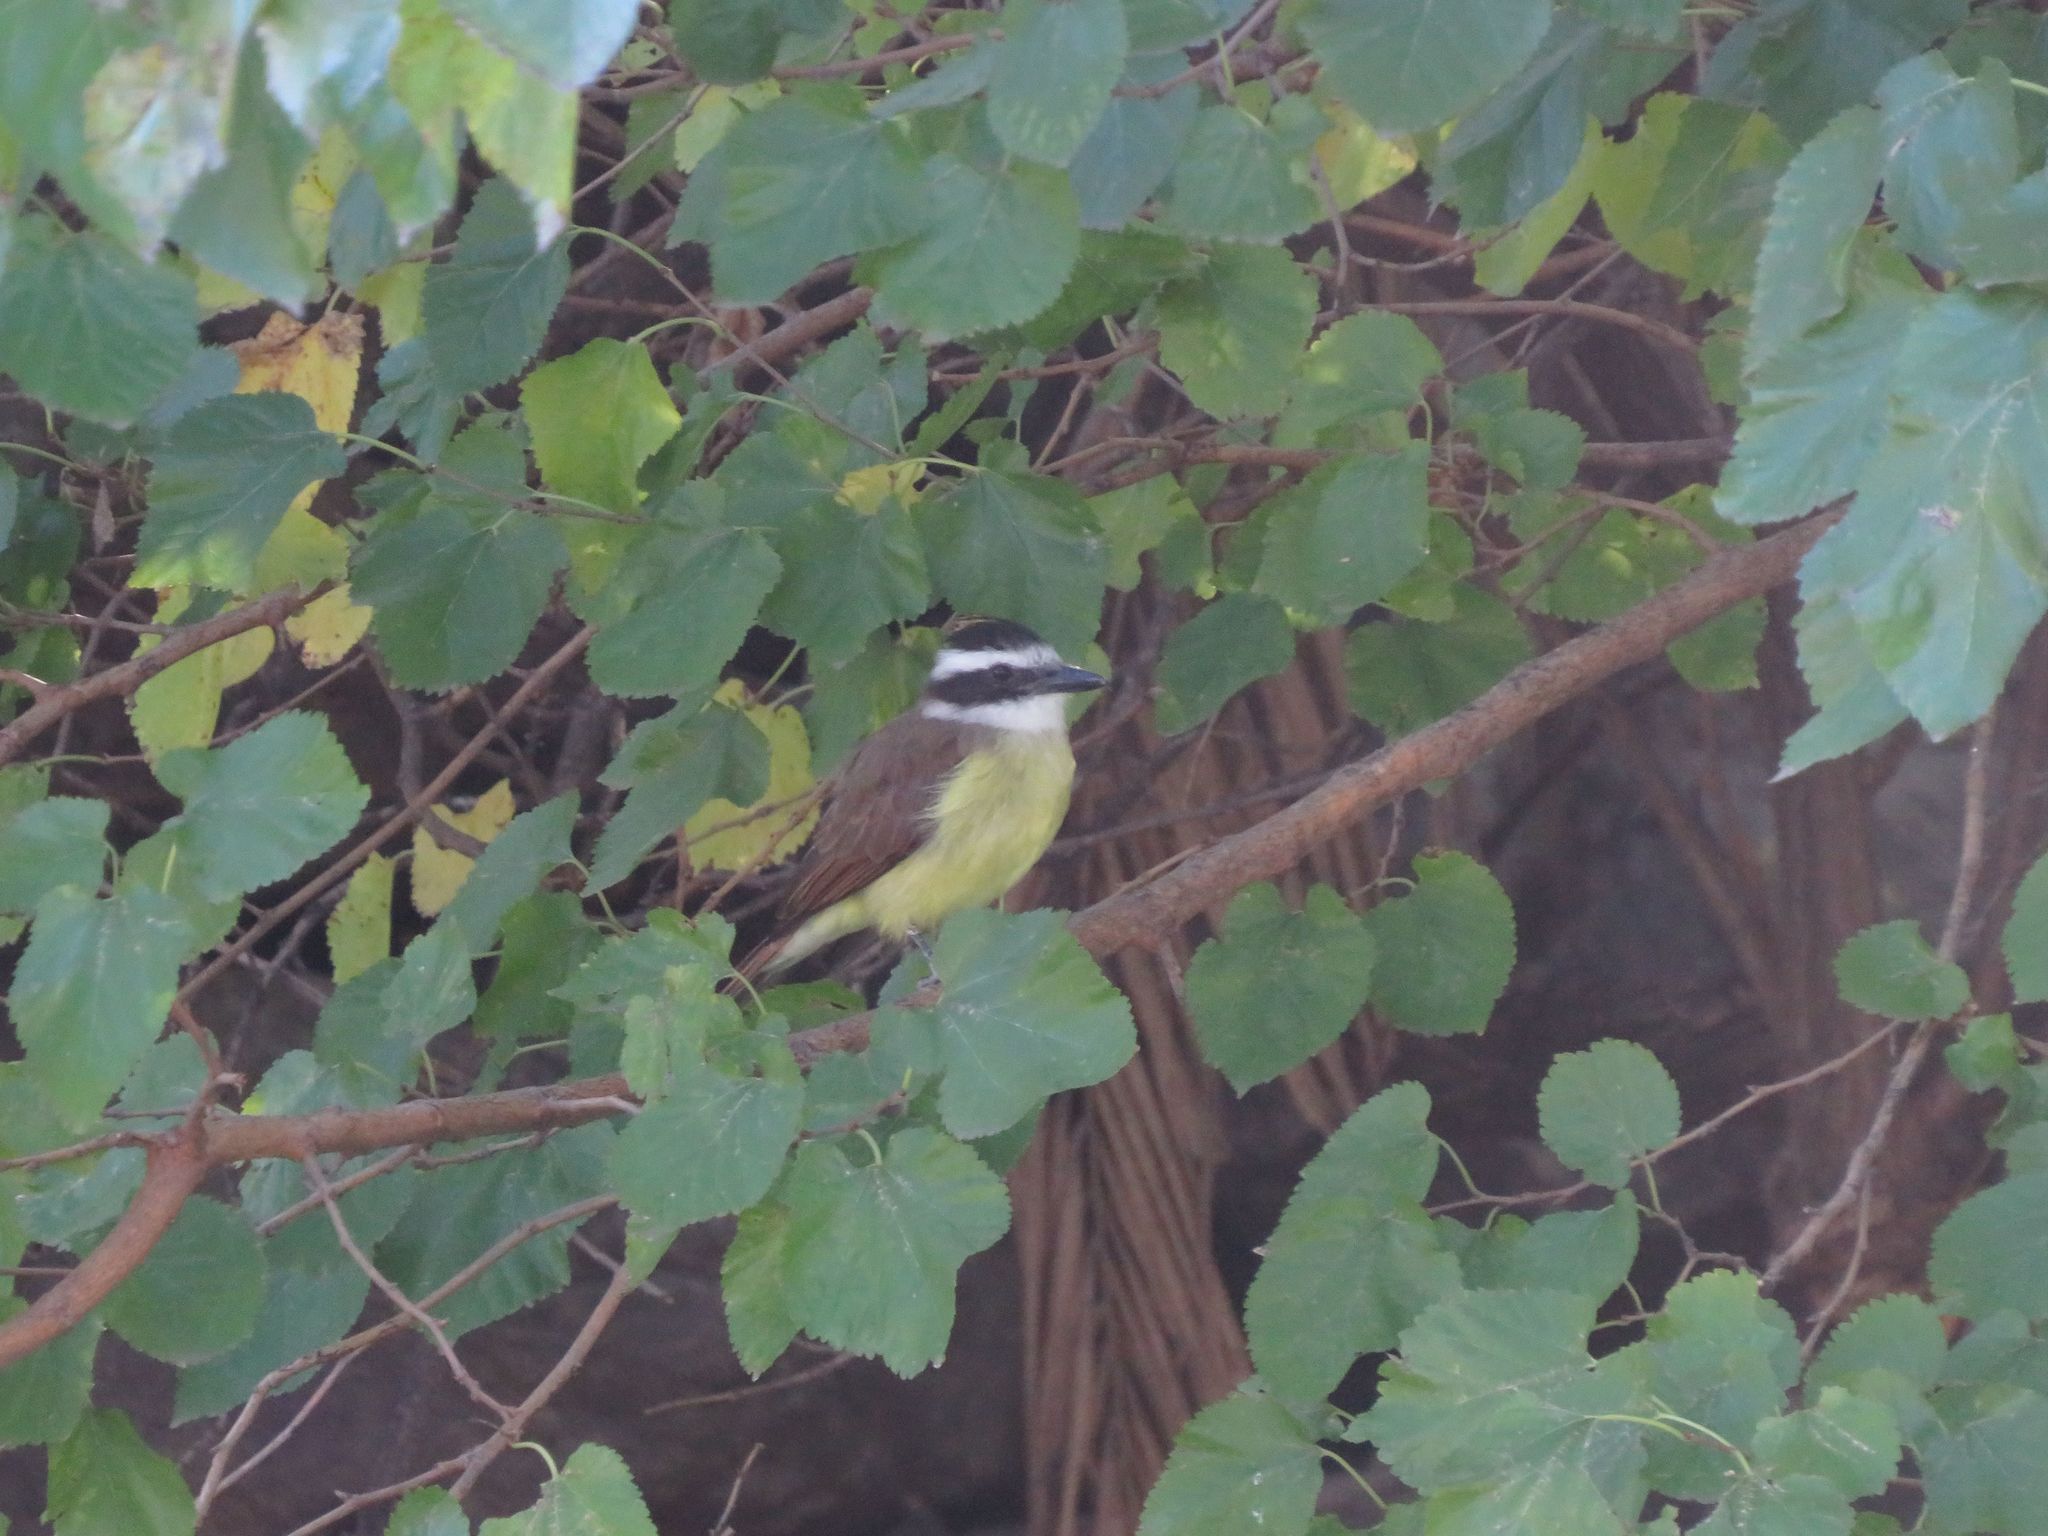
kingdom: Animalia
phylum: Chordata
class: Aves
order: Passeriformes
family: Tyrannidae
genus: Pitangus
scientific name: Pitangus sulphuratus
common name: Great kiskadee
